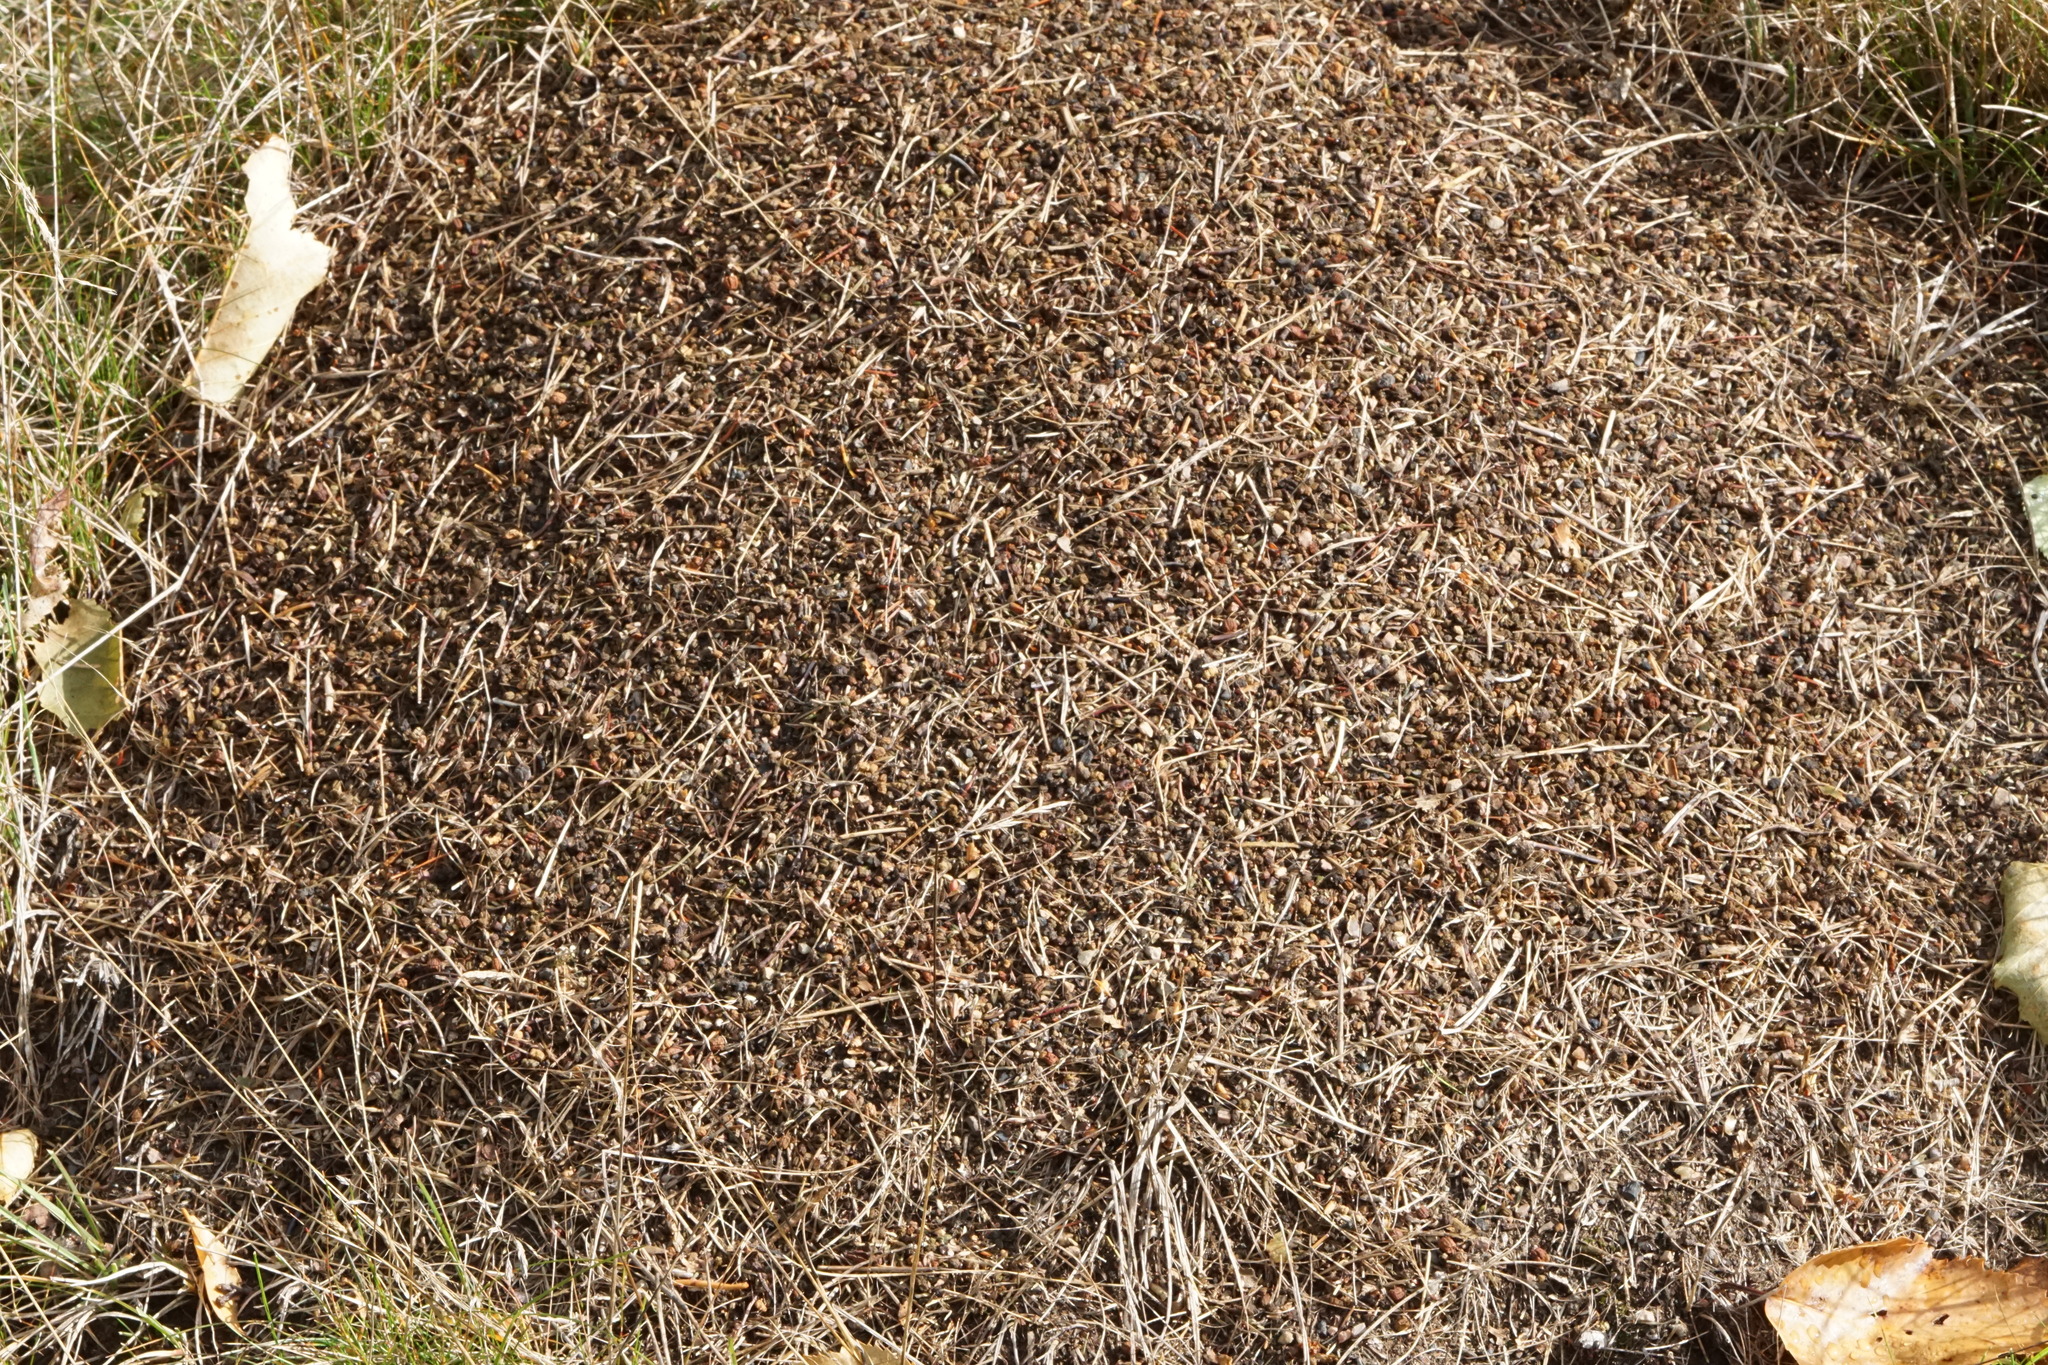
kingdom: Animalia
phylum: Arthropoda
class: Insecta
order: Hymenoptera
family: Formicidae
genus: Formica
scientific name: Formica ulkei
